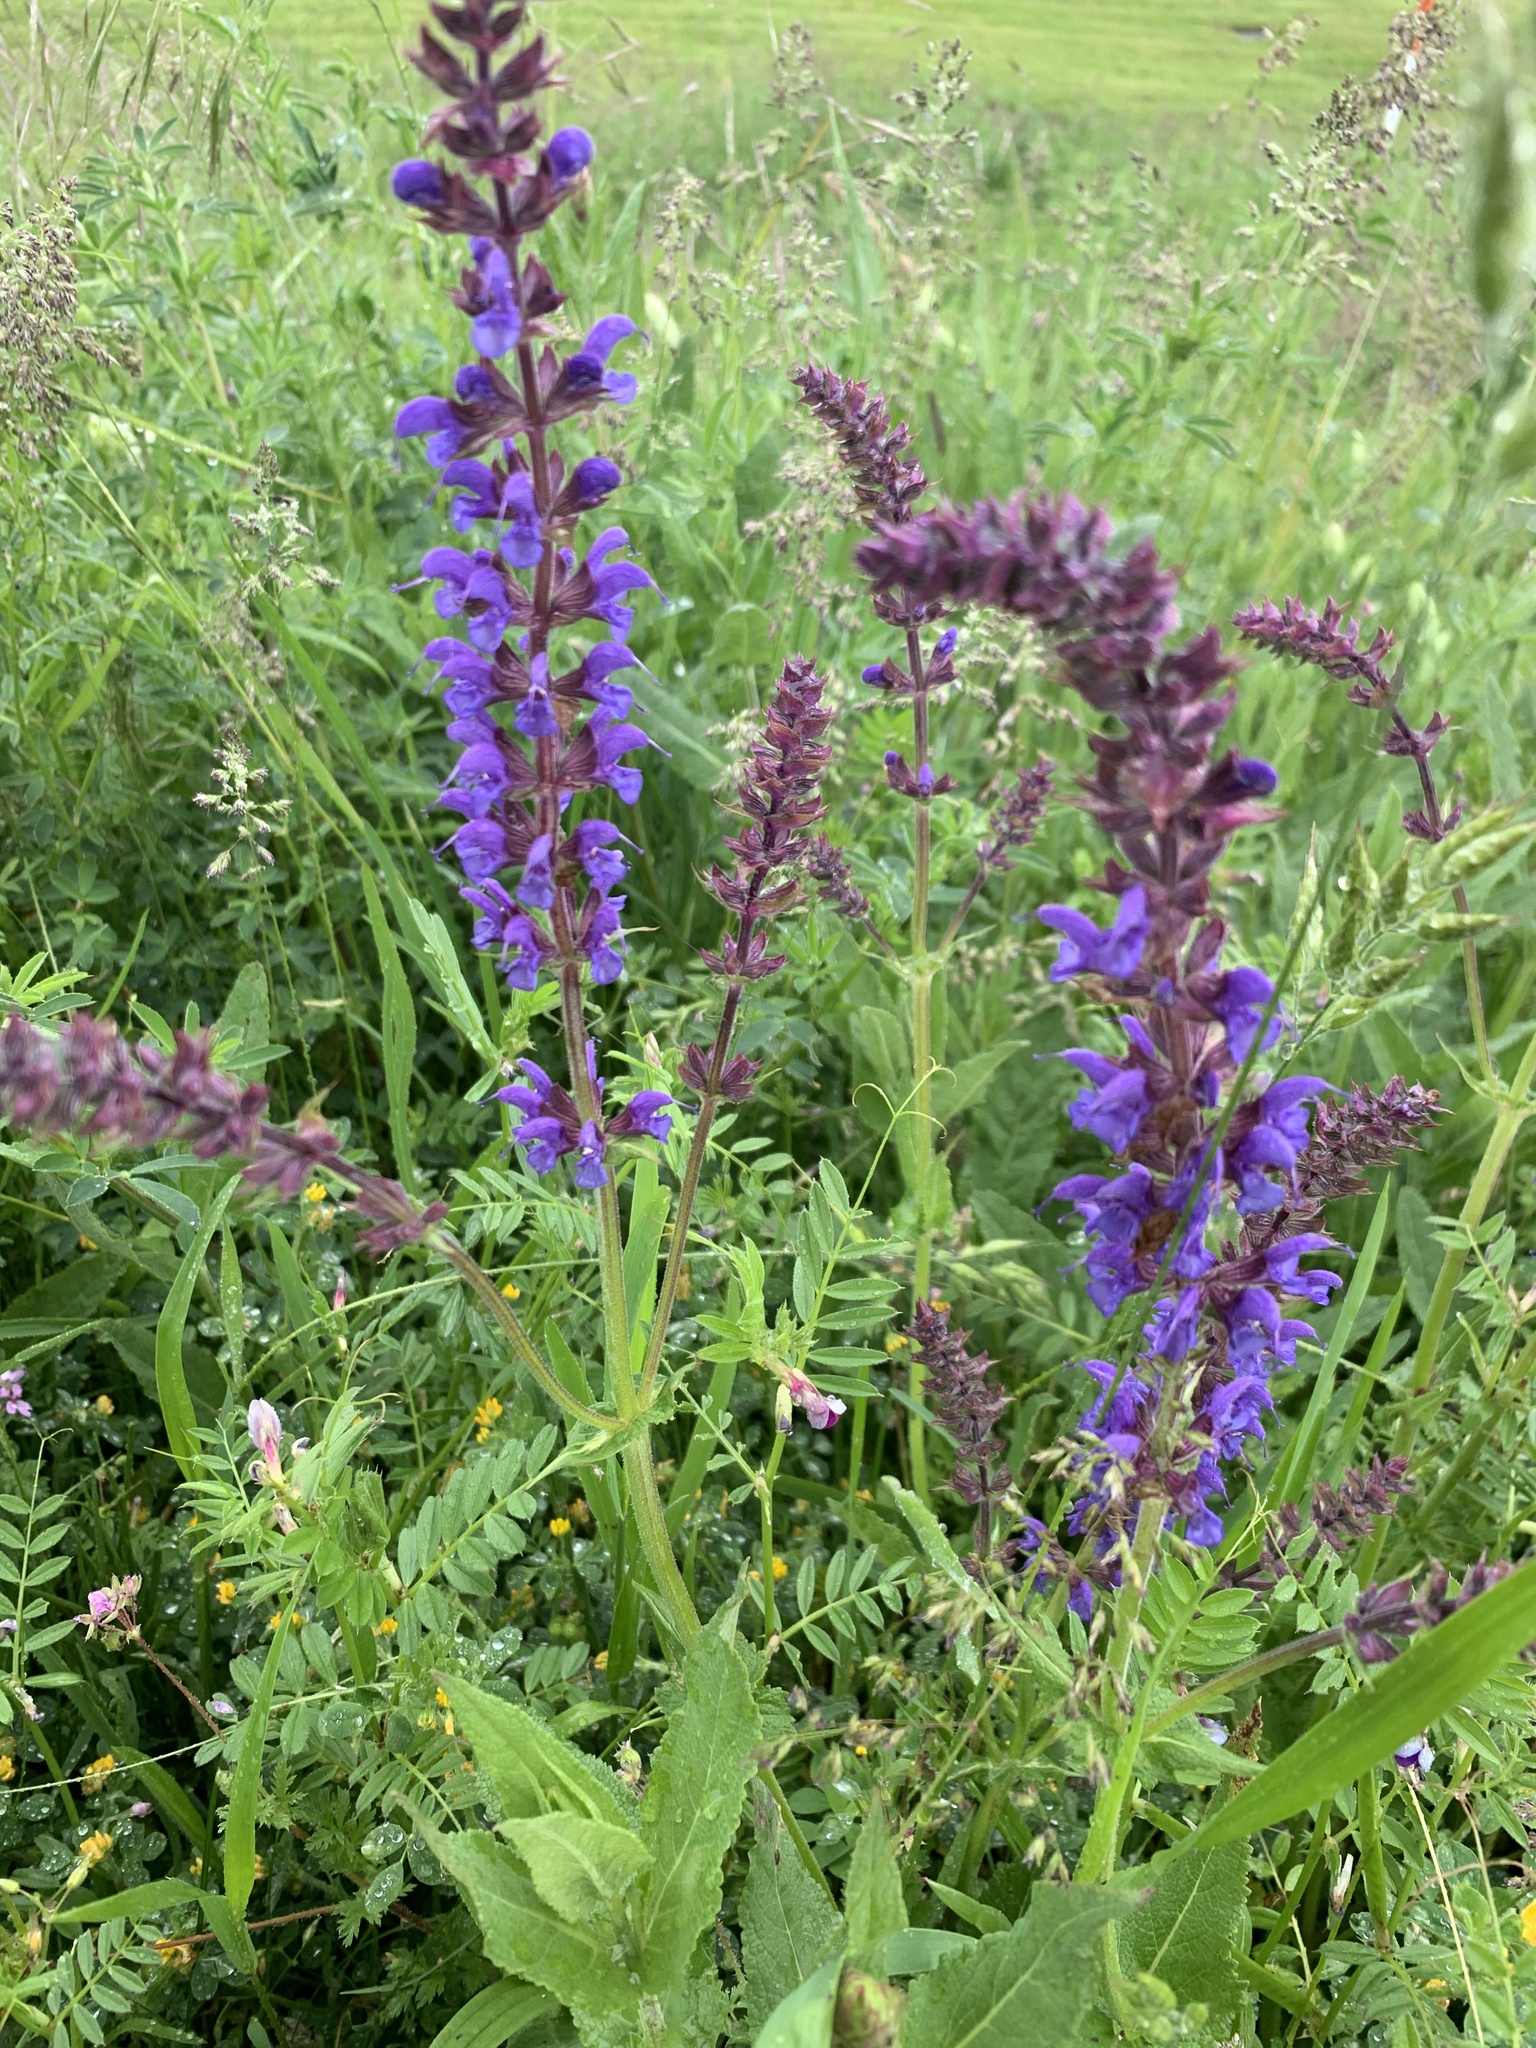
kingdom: Plantae
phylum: Tracheophyta
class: Magnoliopsida
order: Lamiales
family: Lamiaceae
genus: Salvia
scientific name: Salvia pratensis
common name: Meadow sage
